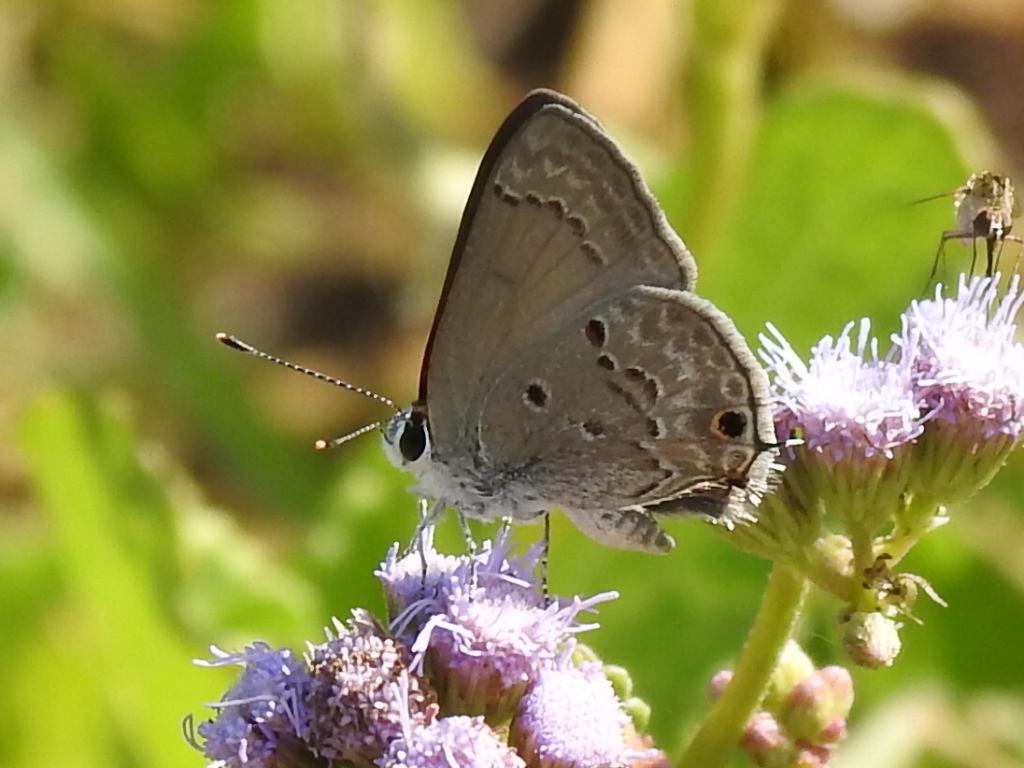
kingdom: Animalia
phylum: Arthropoda
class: Insecta
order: Lepidoptera
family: Lycaenidae
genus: Callicista
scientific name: Callicista columella
